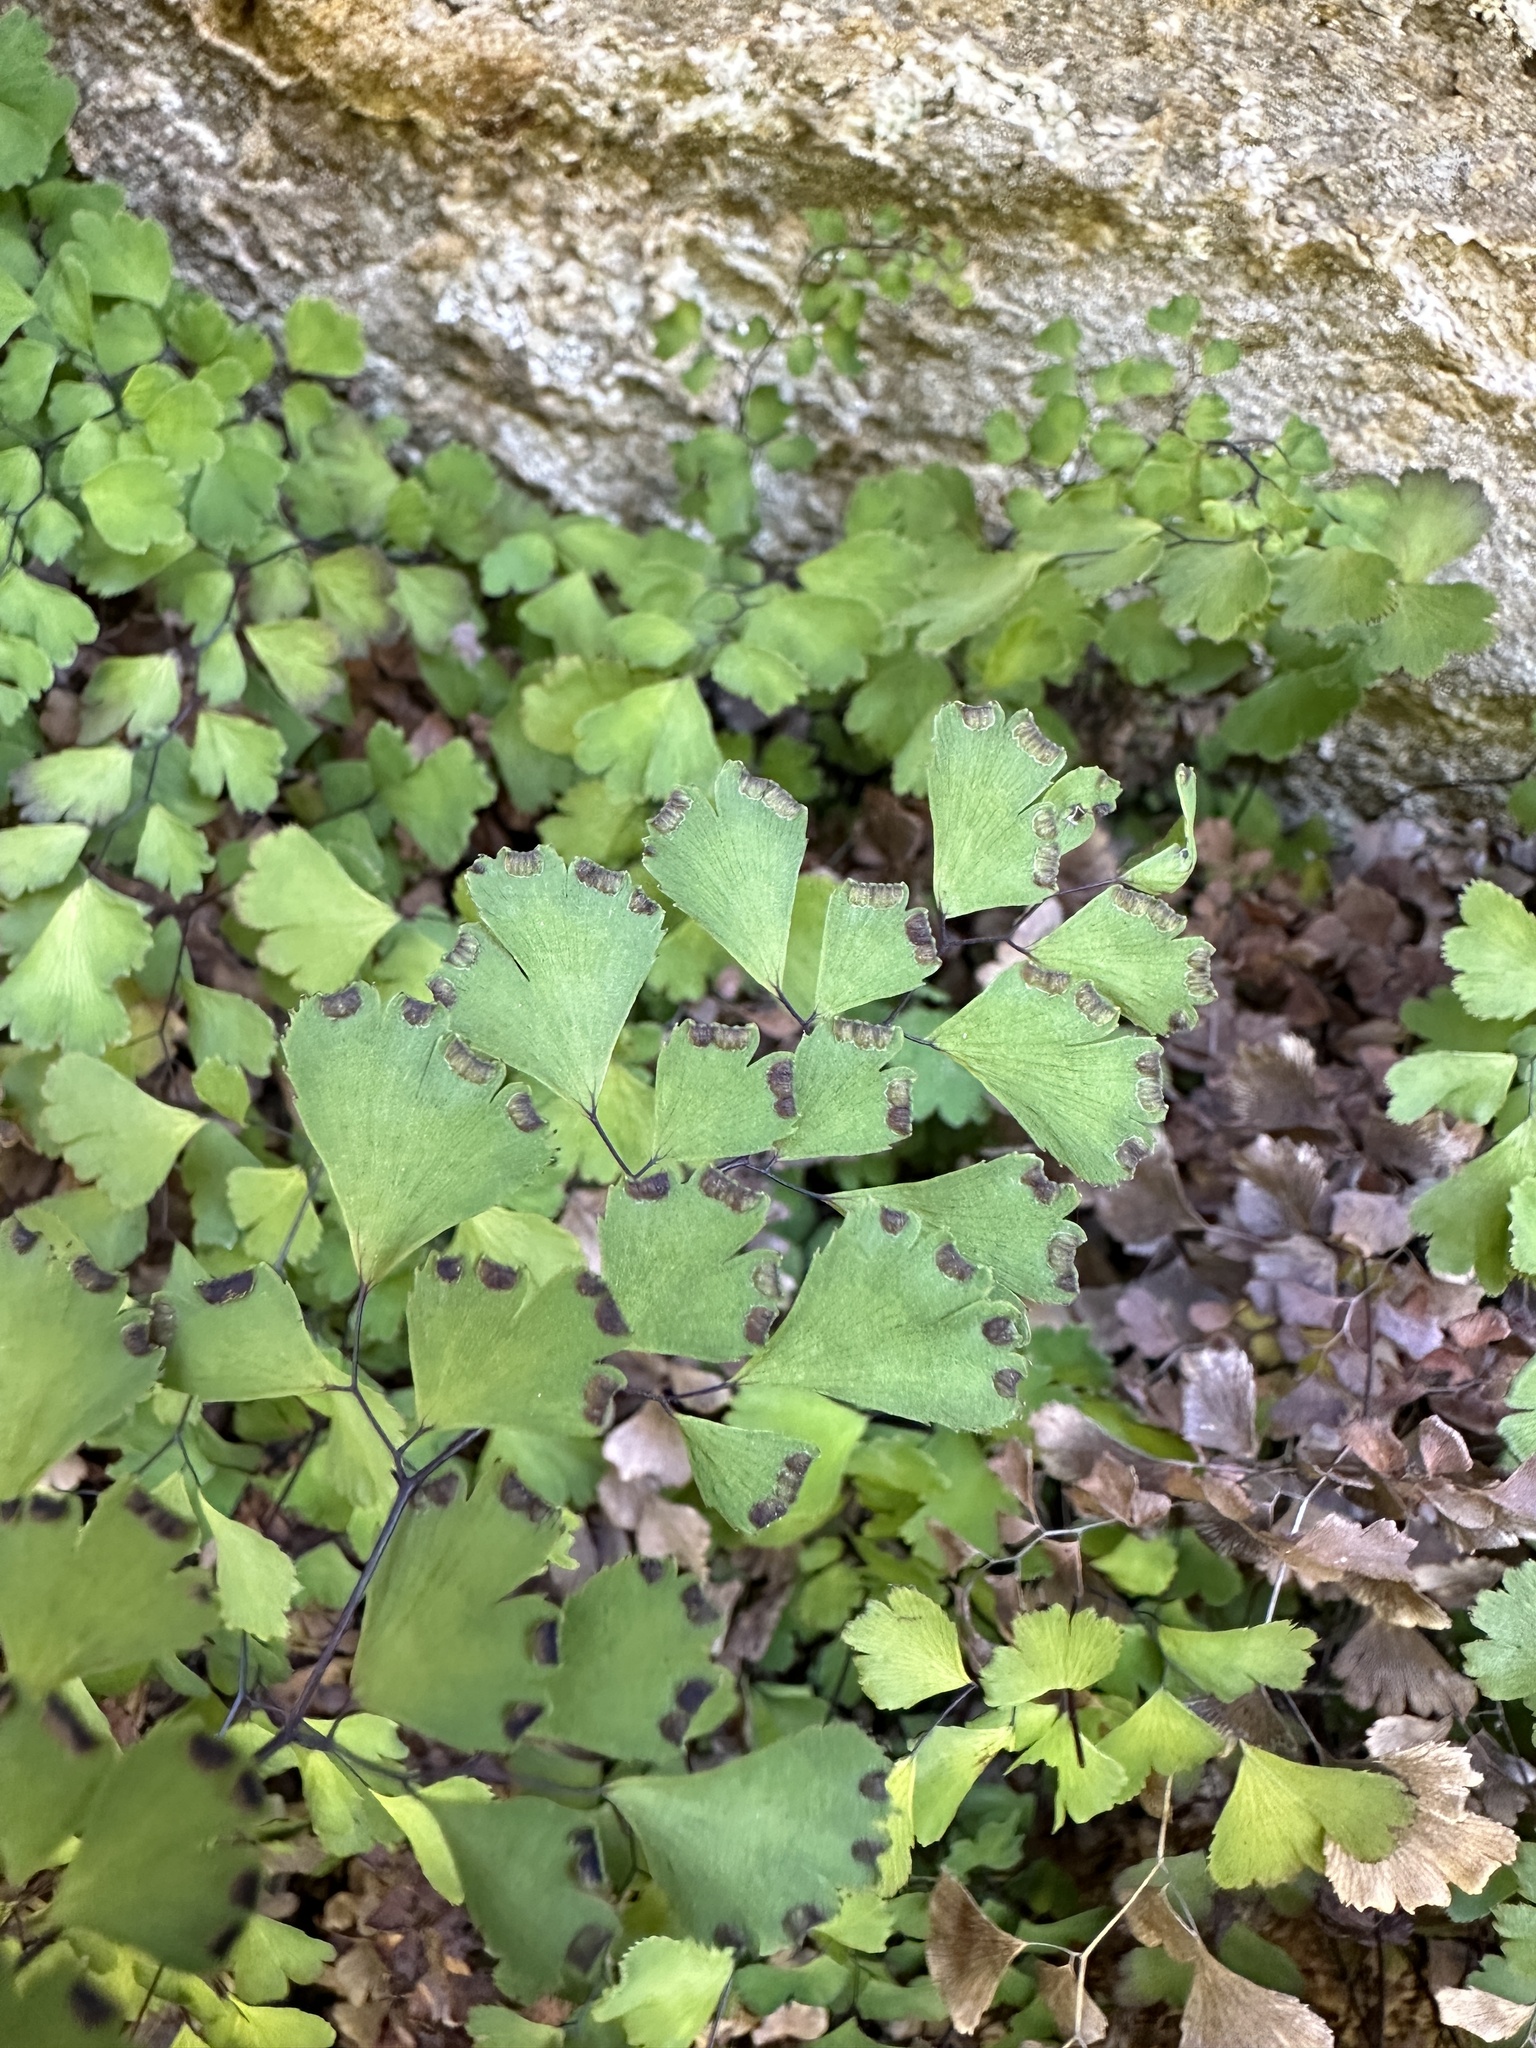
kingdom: Plantae
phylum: Tracheophyta
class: Polypodiopsida
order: Polypodiales
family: Pteridaceae
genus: Adiantum
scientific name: Adiantum capillus-veneris
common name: Maidenhair fern
